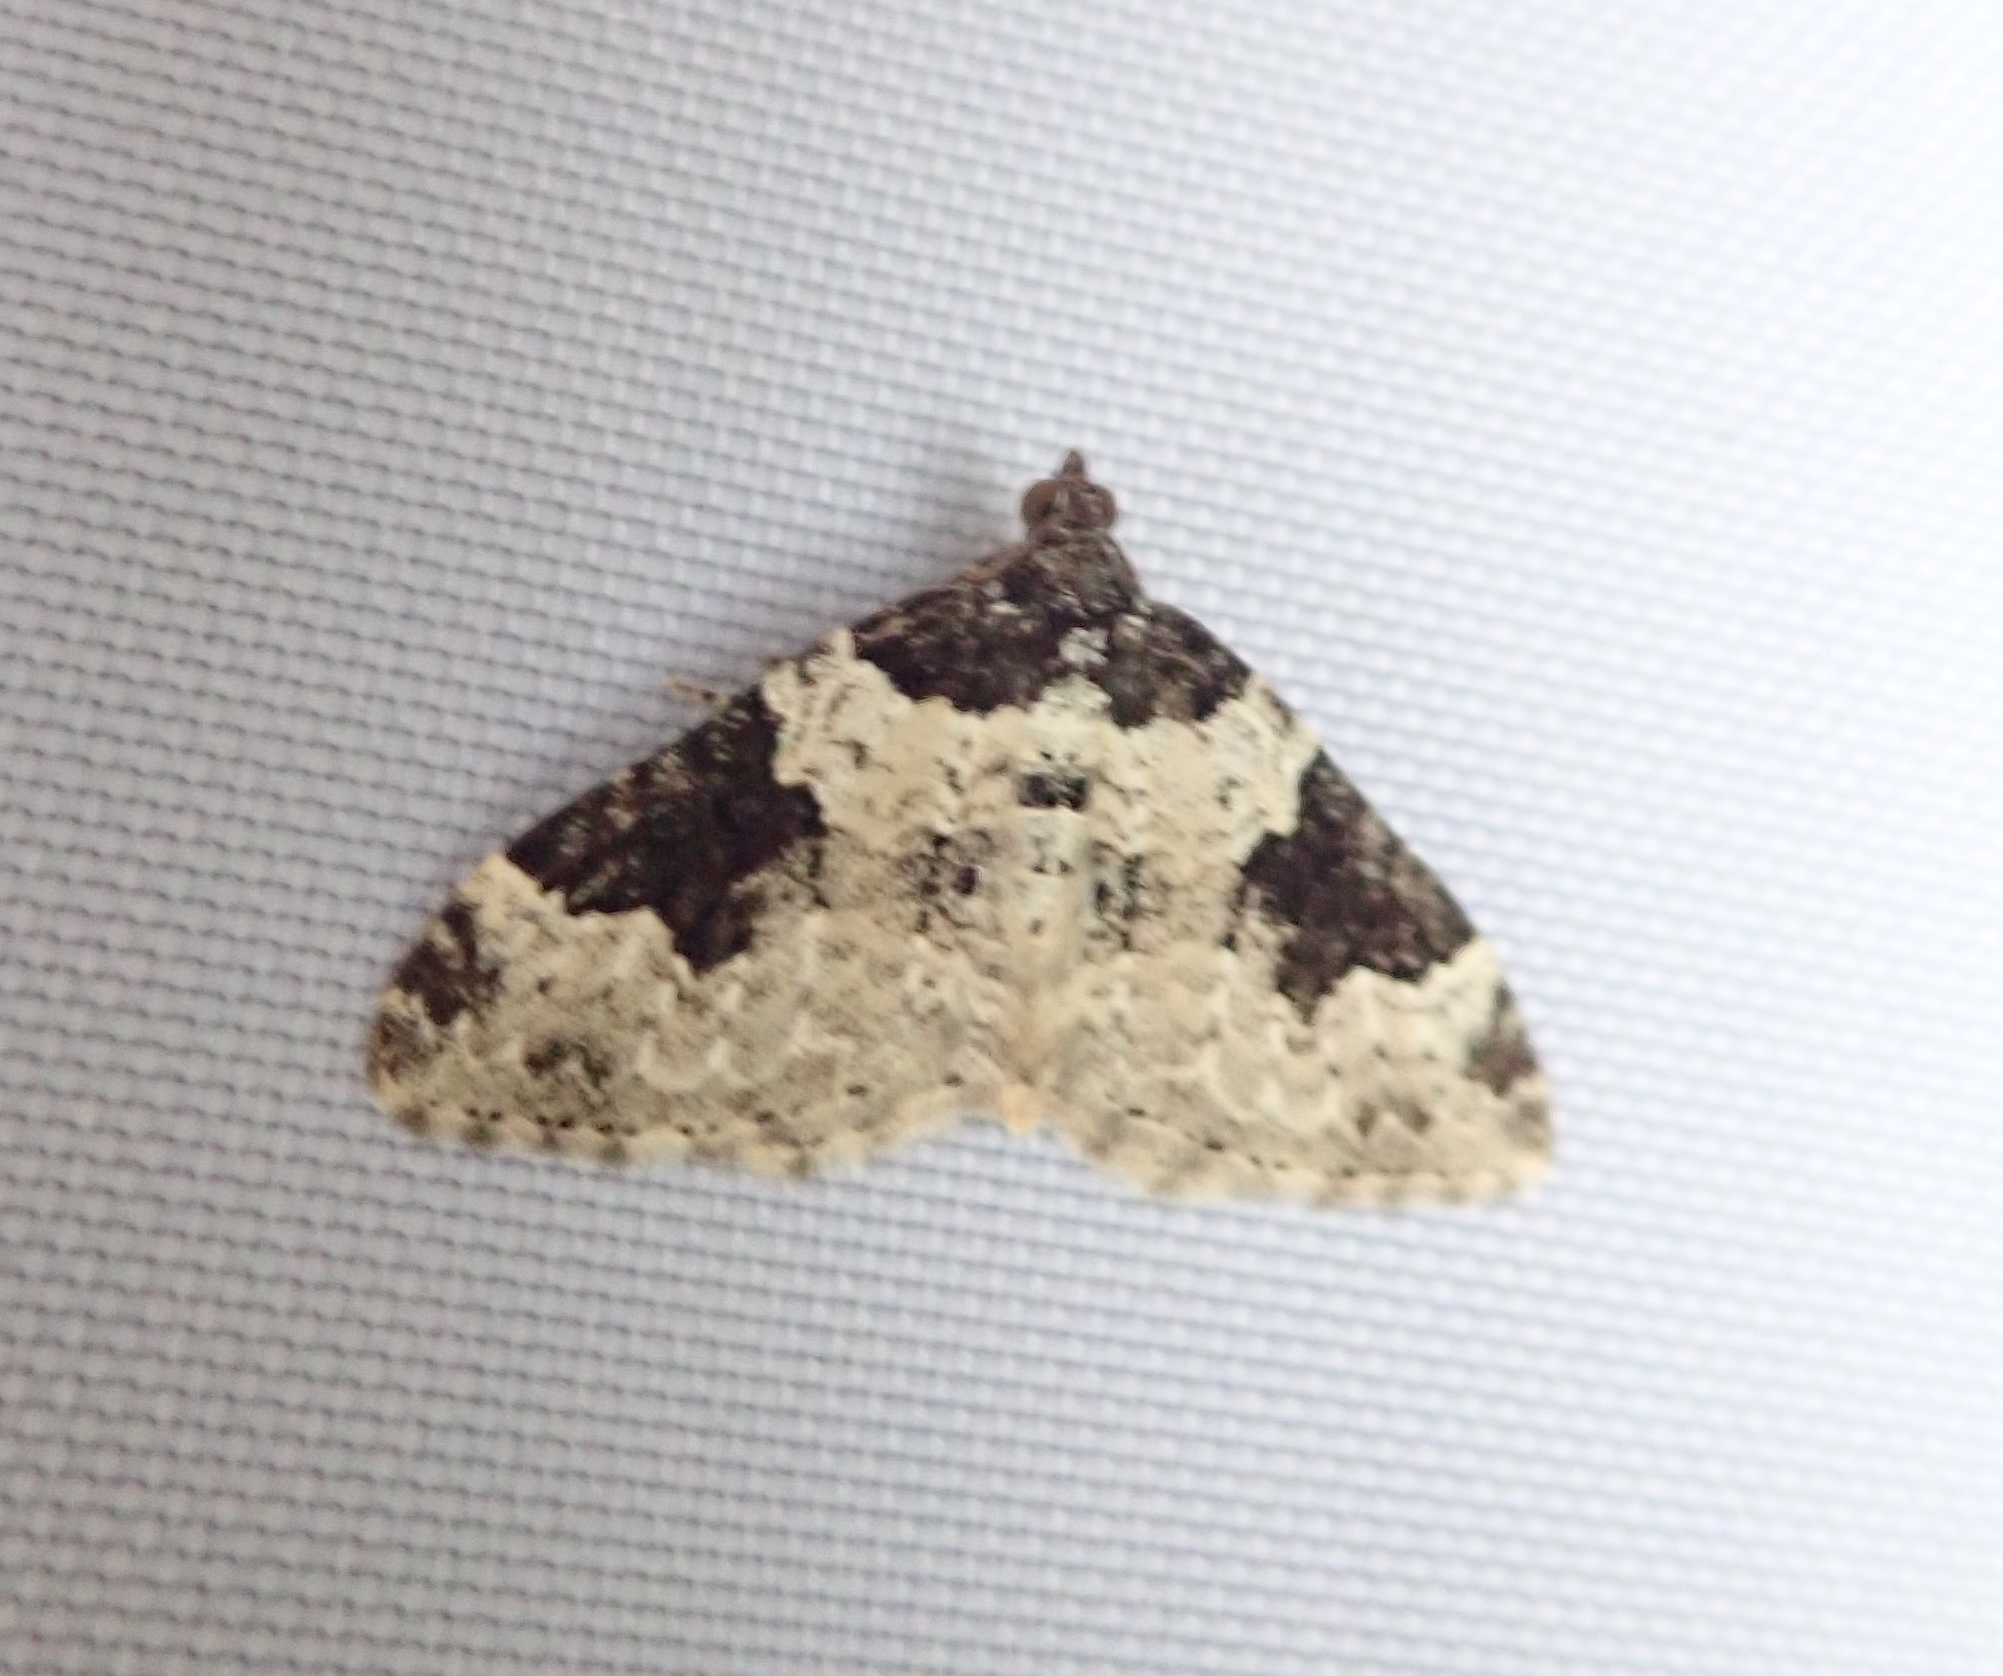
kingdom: Animalia
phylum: Arthropoda
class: Insecta
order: Lepidoptera
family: Geometridae
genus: Xanthorhoe
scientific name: Xanthorhoe fluctuata
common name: Garden carpet
